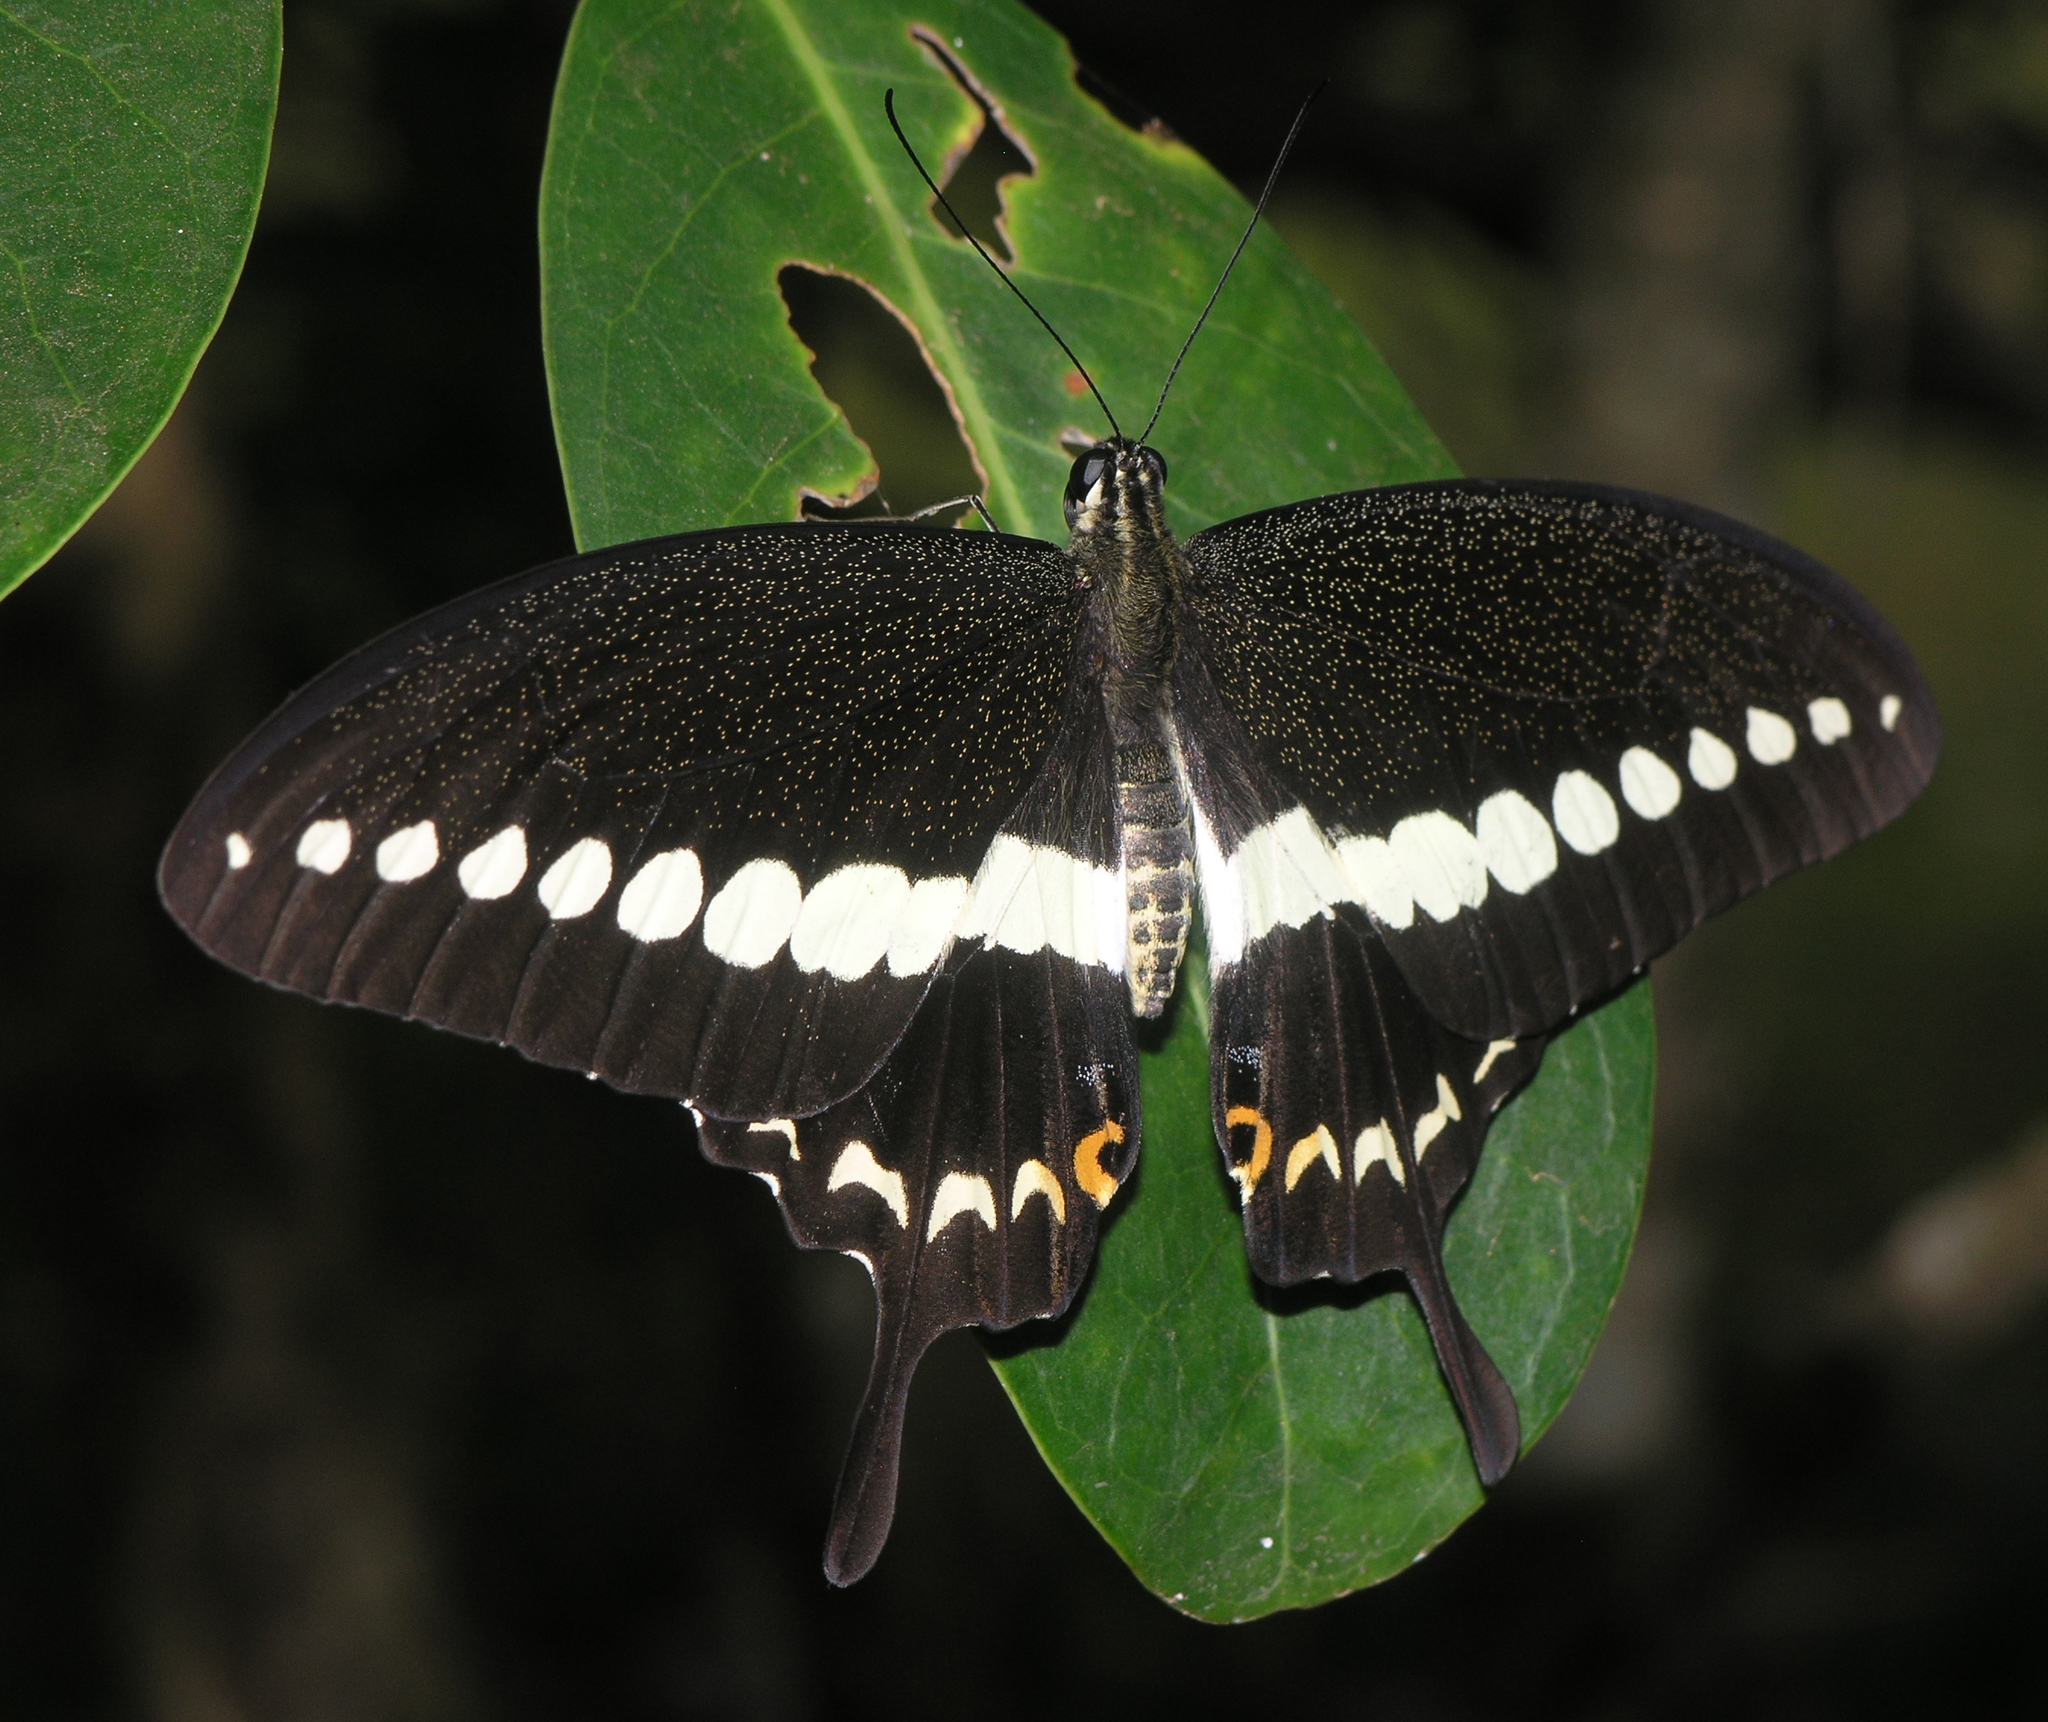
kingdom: Animalia
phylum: Arthropoda
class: Insecta
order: Lepidoptera
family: Papilionidae
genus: Papilio
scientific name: Papilio demolion
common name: Banded swallowtail
